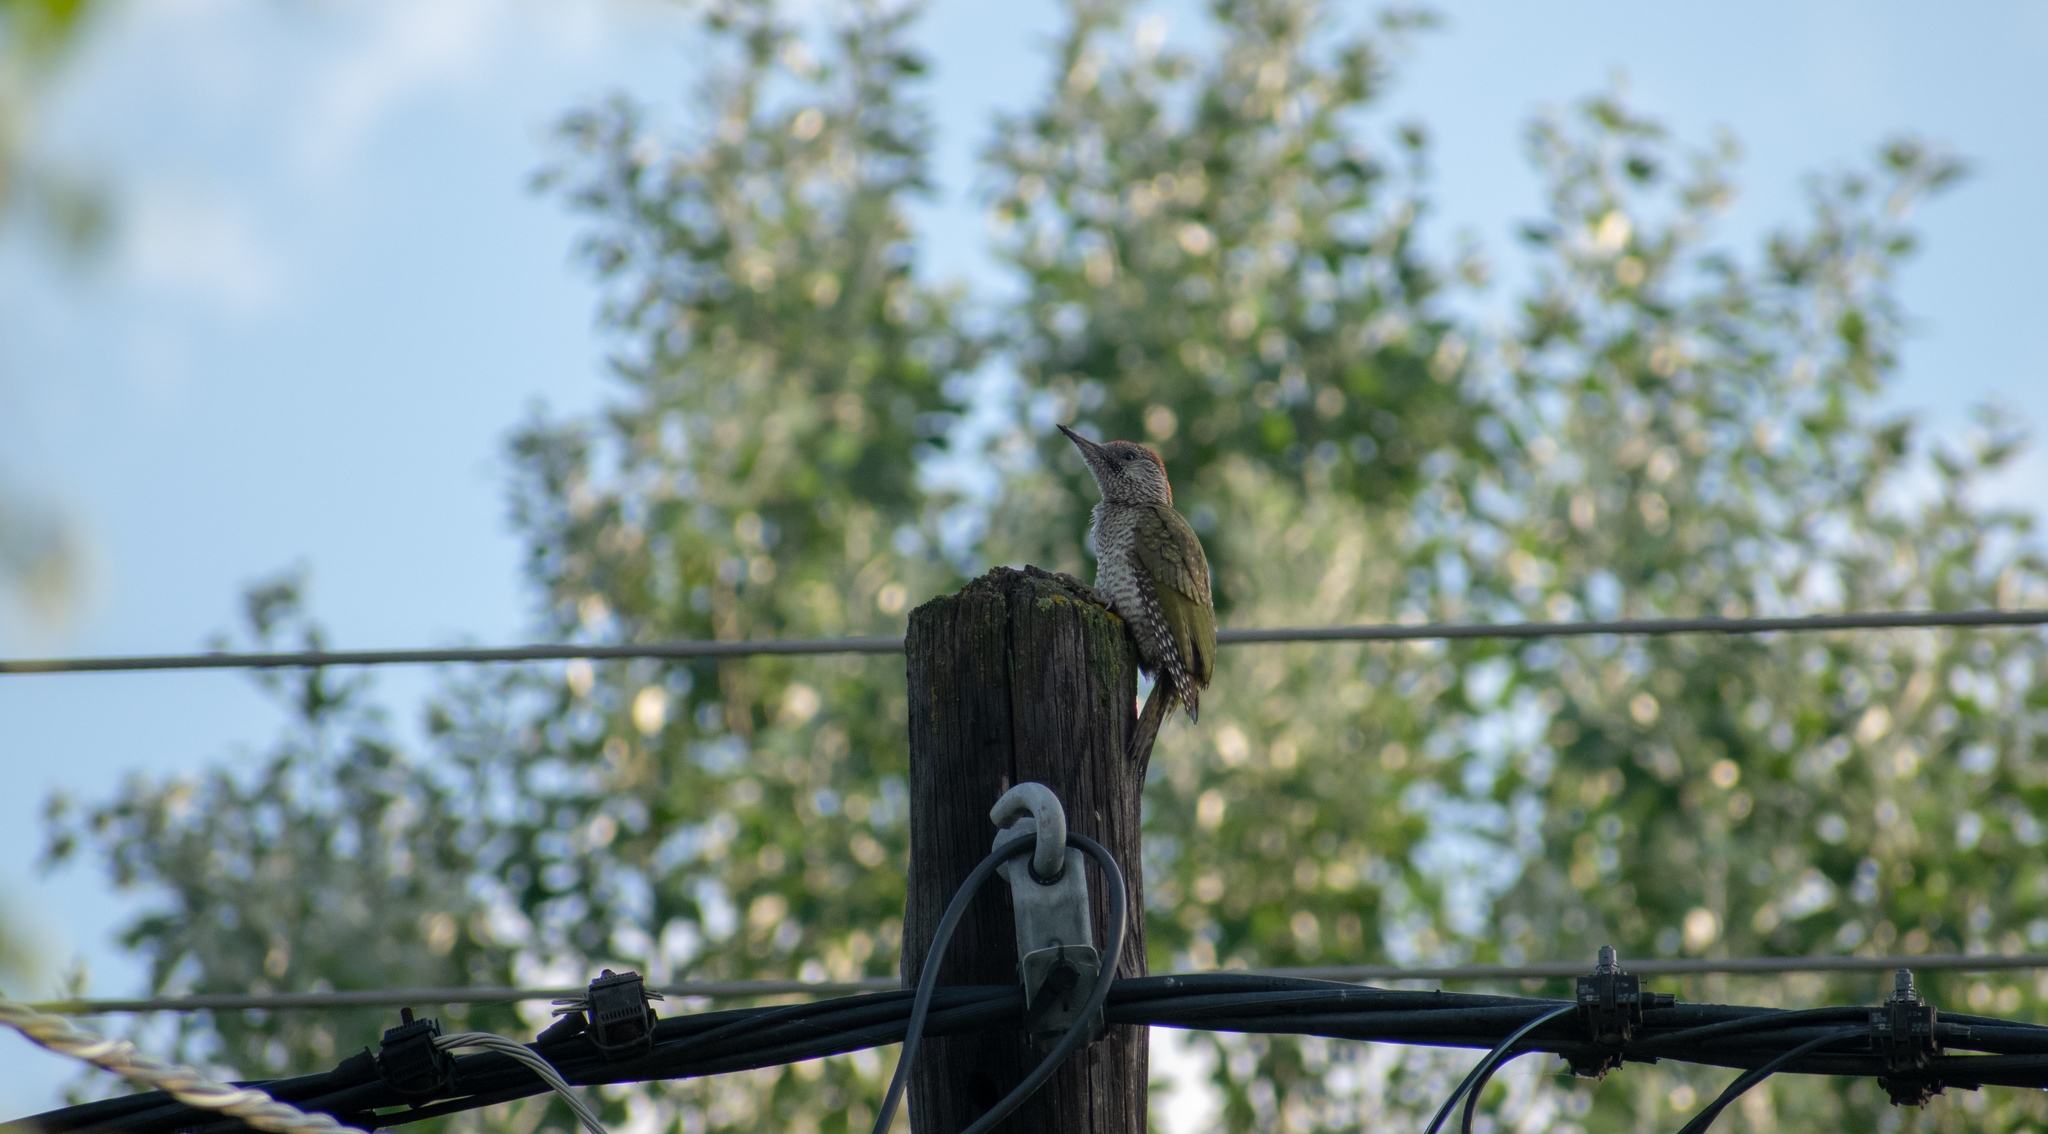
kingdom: Animalia
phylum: Chordata
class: Aves
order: Piciformes
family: Picidae
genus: Picus
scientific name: Picus viridis
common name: European green woodpecker
